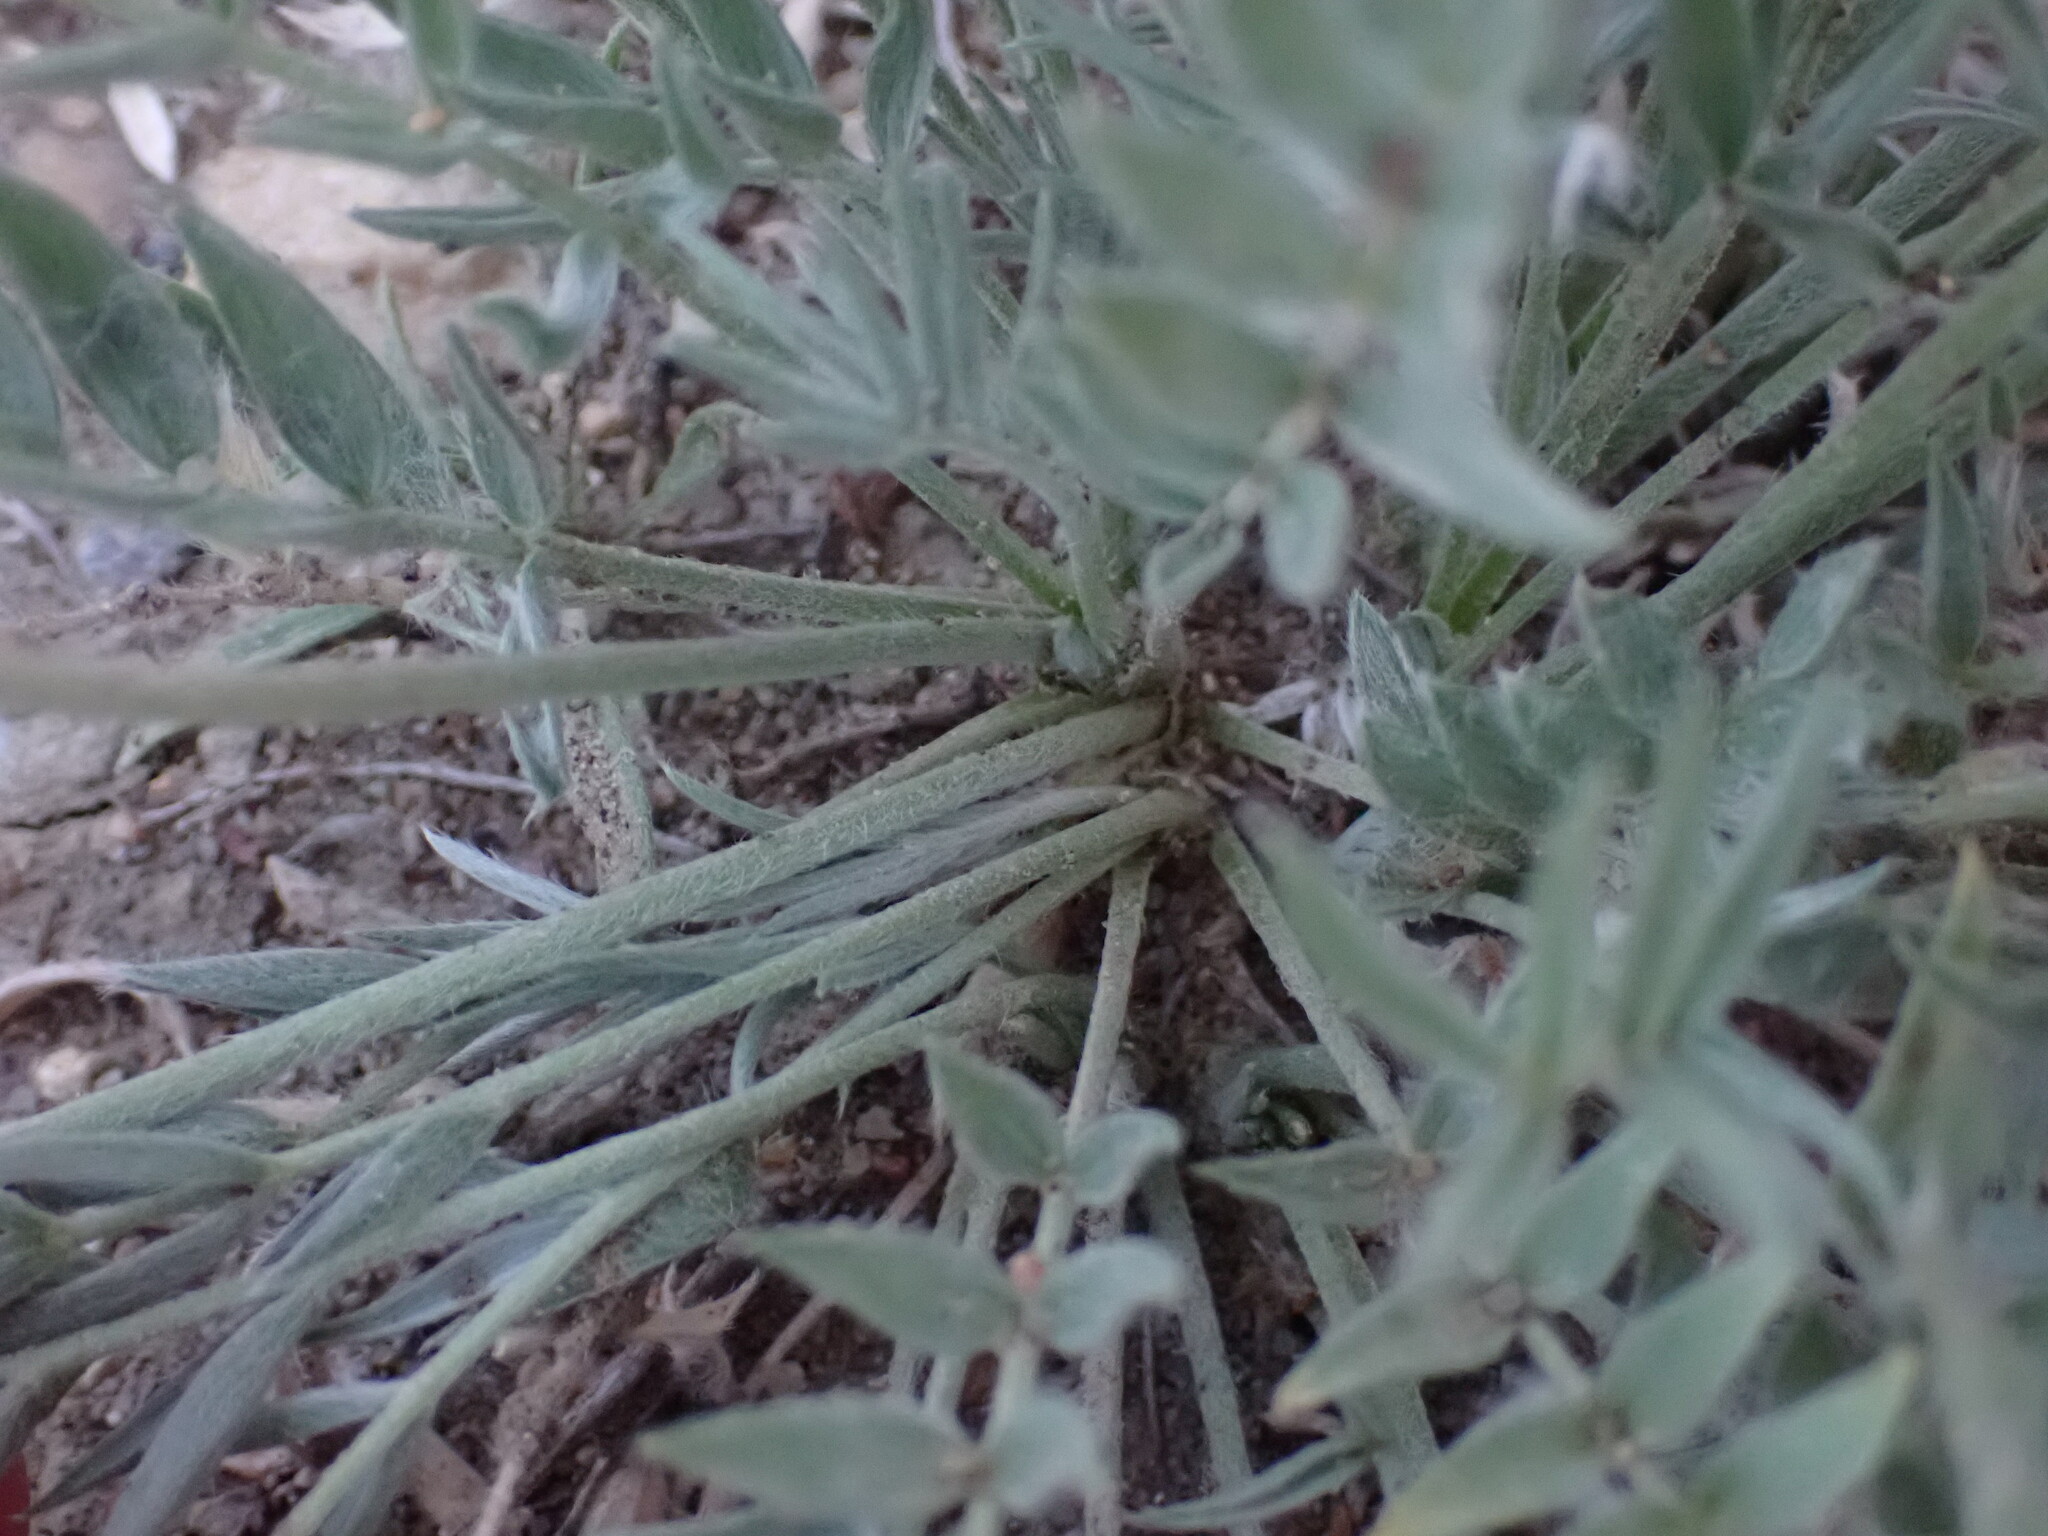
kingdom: Plantae
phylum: Tracheophyta
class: Magnoliopsida
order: Fabales
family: Fabaceae
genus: Oxytropis
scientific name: Oxytropis besseyi
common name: Bessey's locoweed
